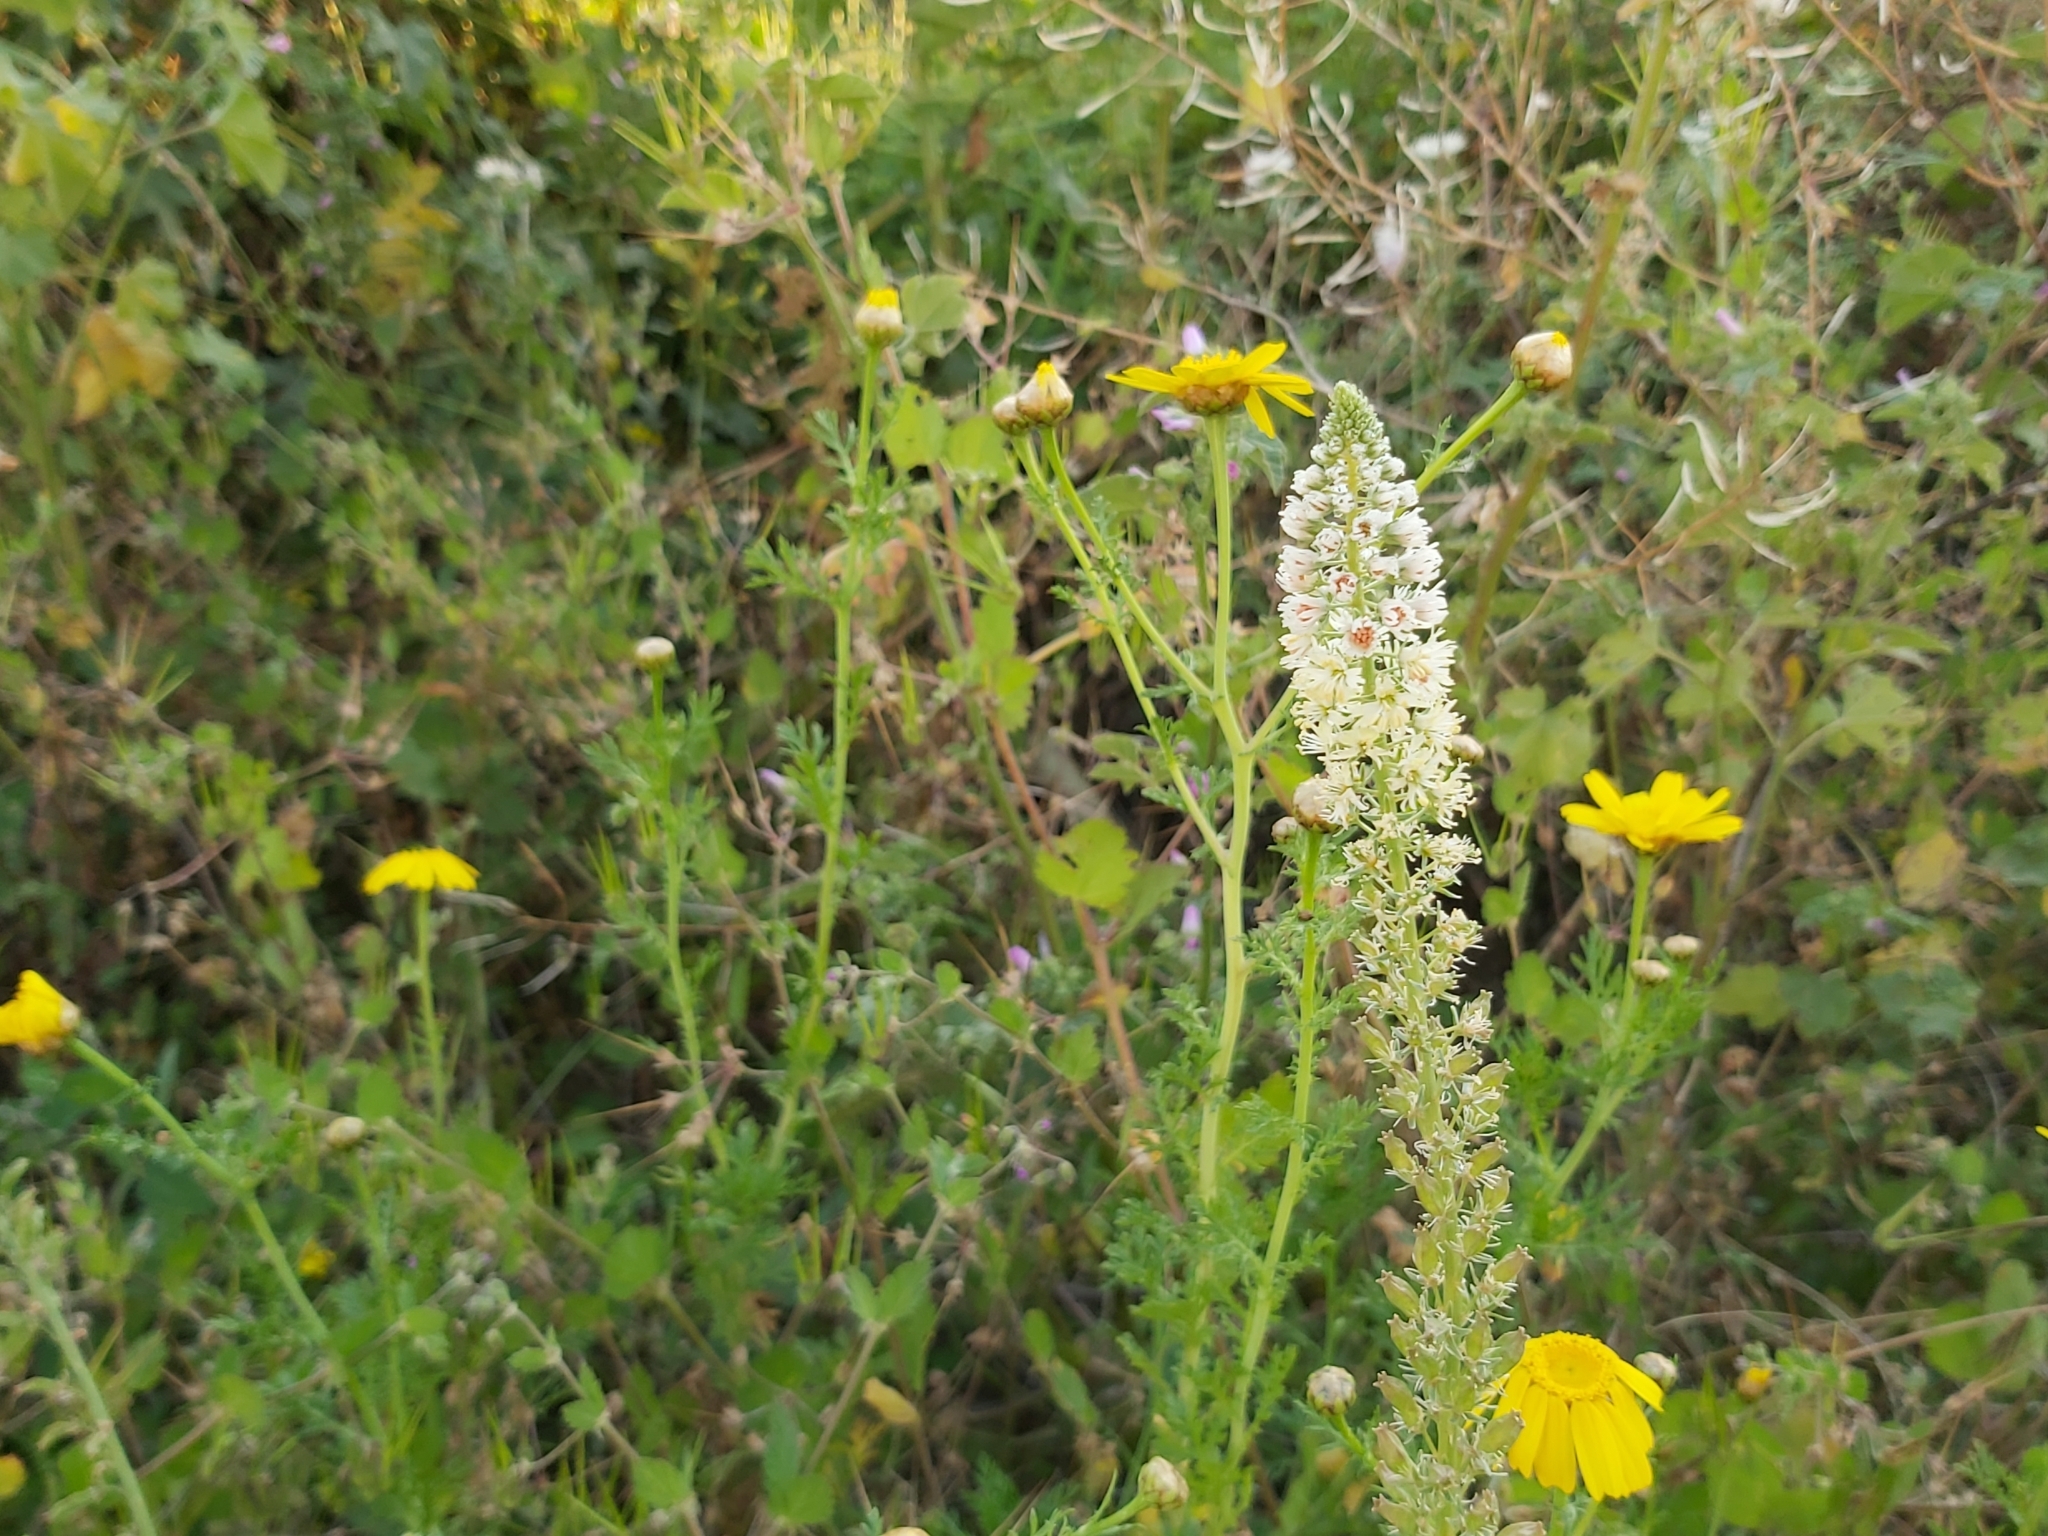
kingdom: Plantae
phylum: Tracheophyta
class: Magnoliopsida
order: Brassicales
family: Resedaceae
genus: Reseda
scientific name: Reseda alba
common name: White mignonette
